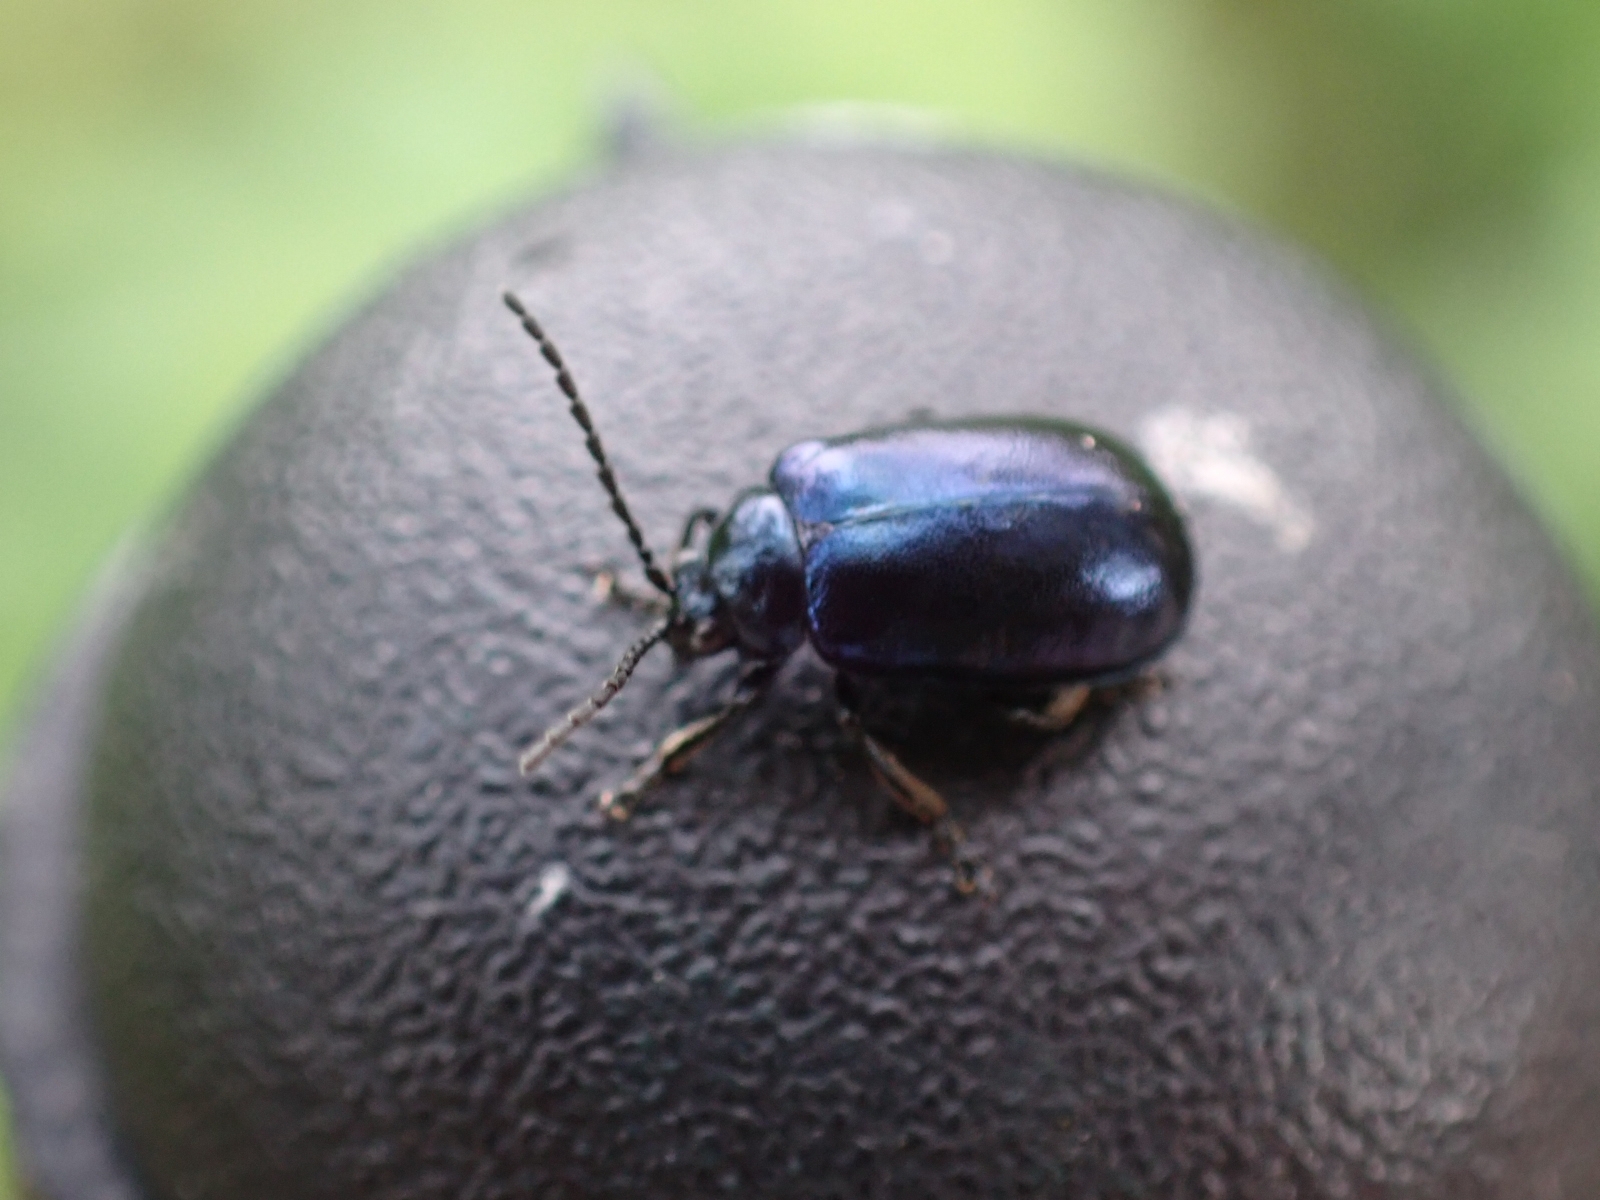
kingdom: Animalia
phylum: Arthropoda
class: Insecta
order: Coleoptera
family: Chrysomelidae
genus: Agelastica
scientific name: Agelastica alni
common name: Alder leaf beetle
